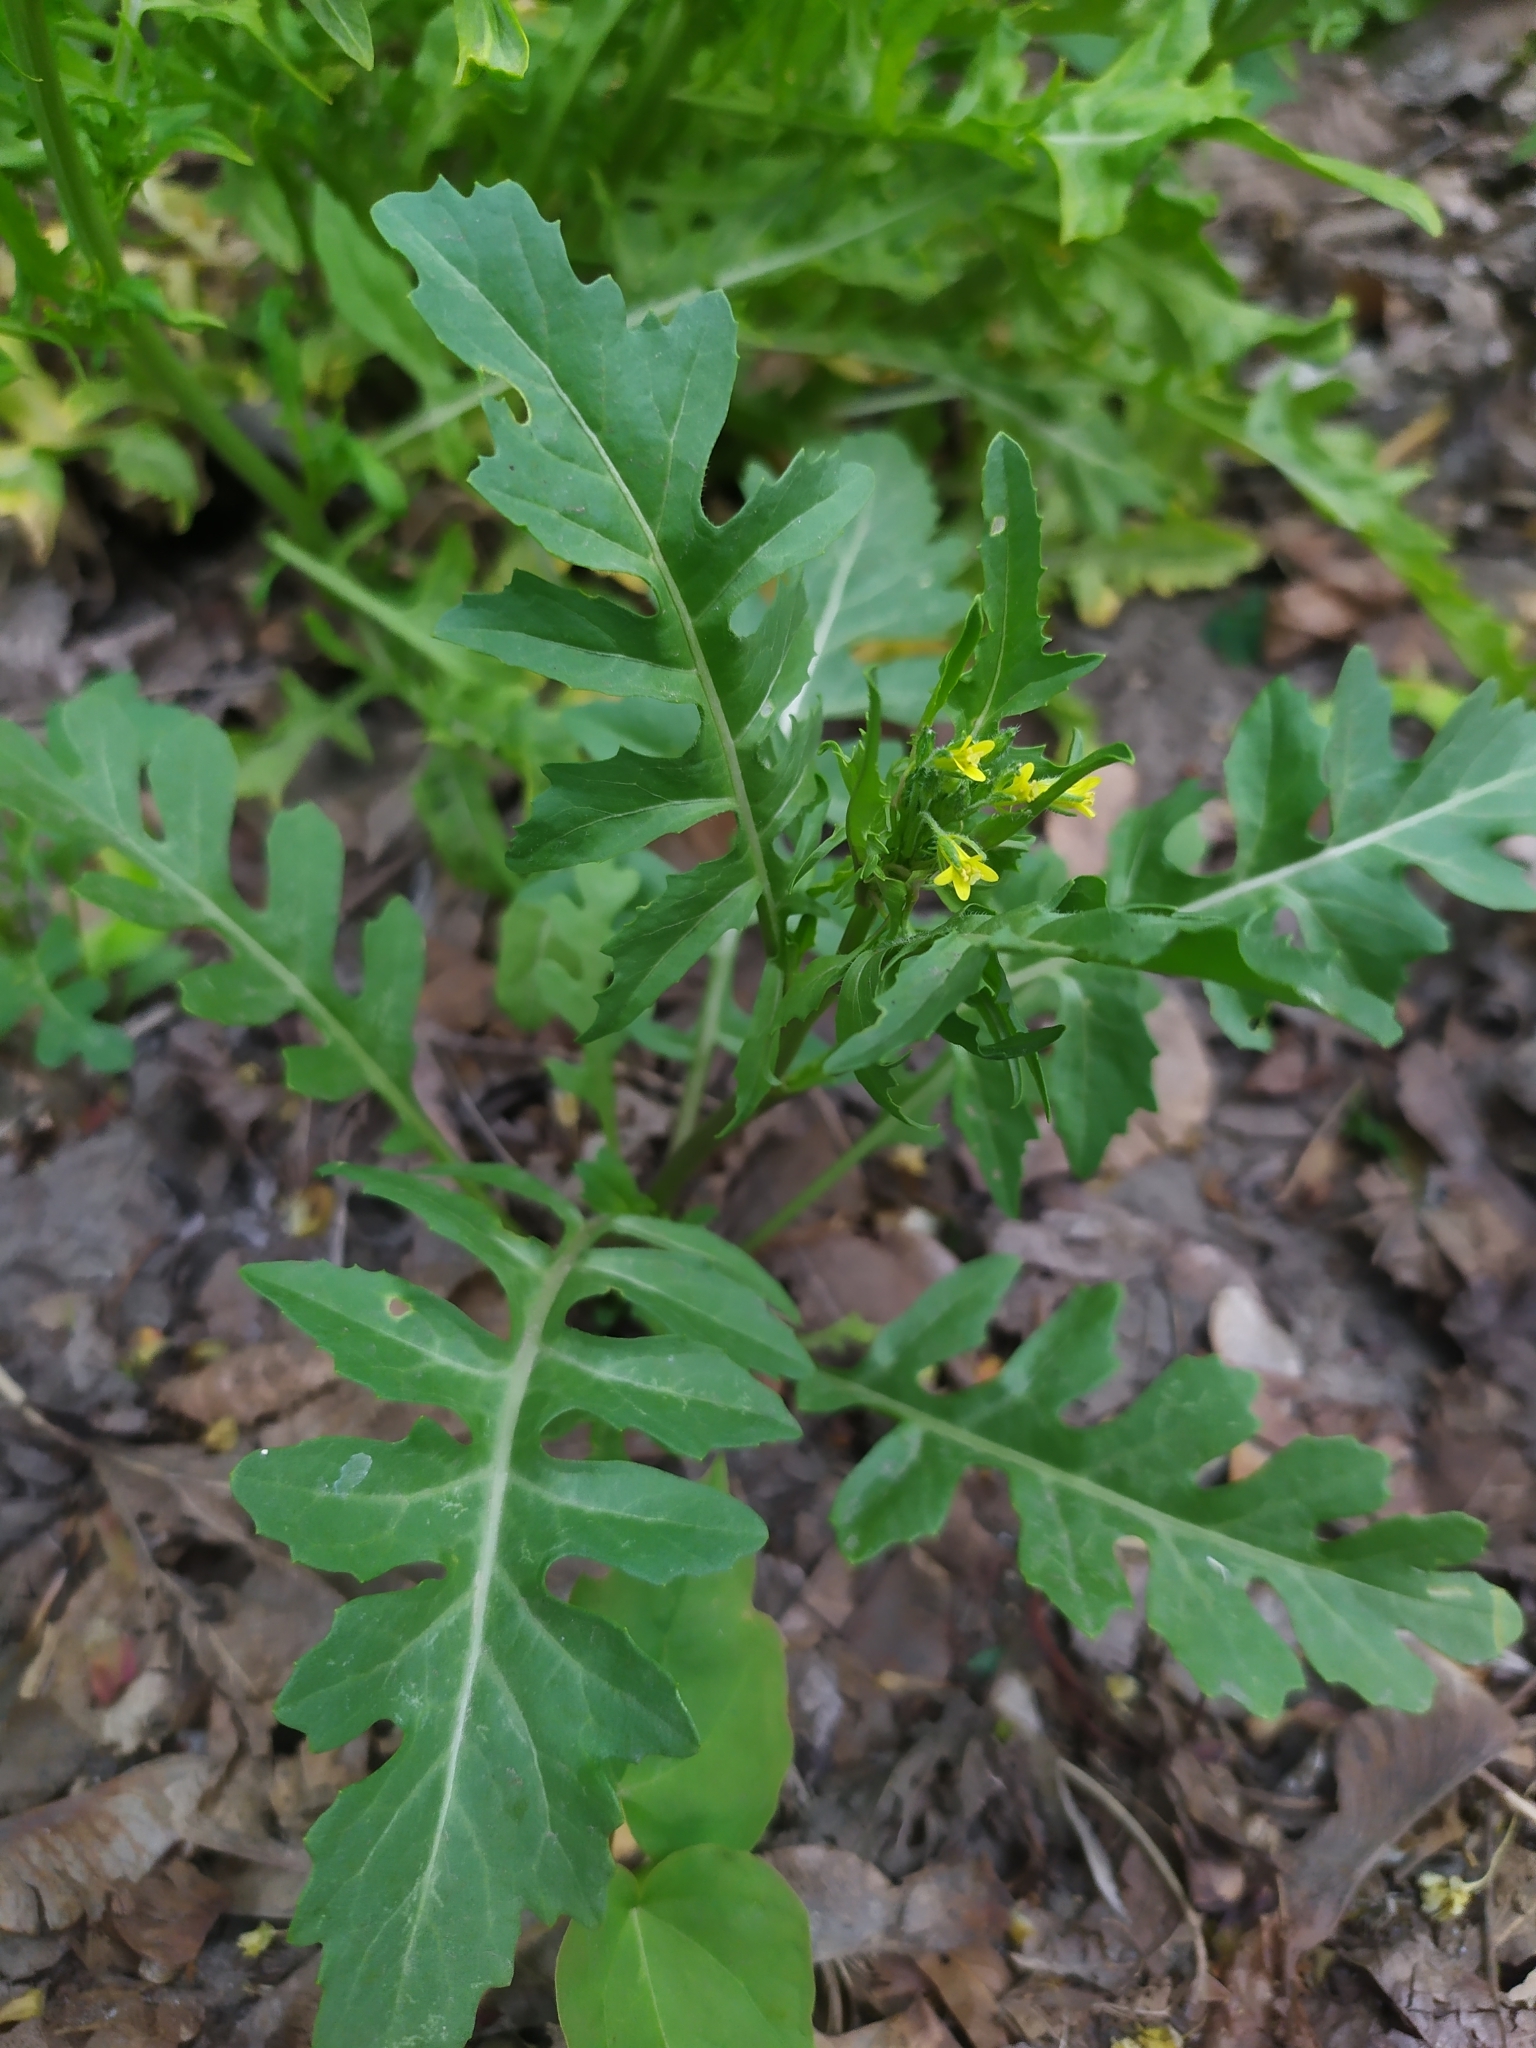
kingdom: Plantae
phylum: Tracheophyta
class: Magnoliopsida
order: Brassicales
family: Brassicaceae
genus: Sisymbrium
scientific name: Sisymbrium irio
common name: London rocket
